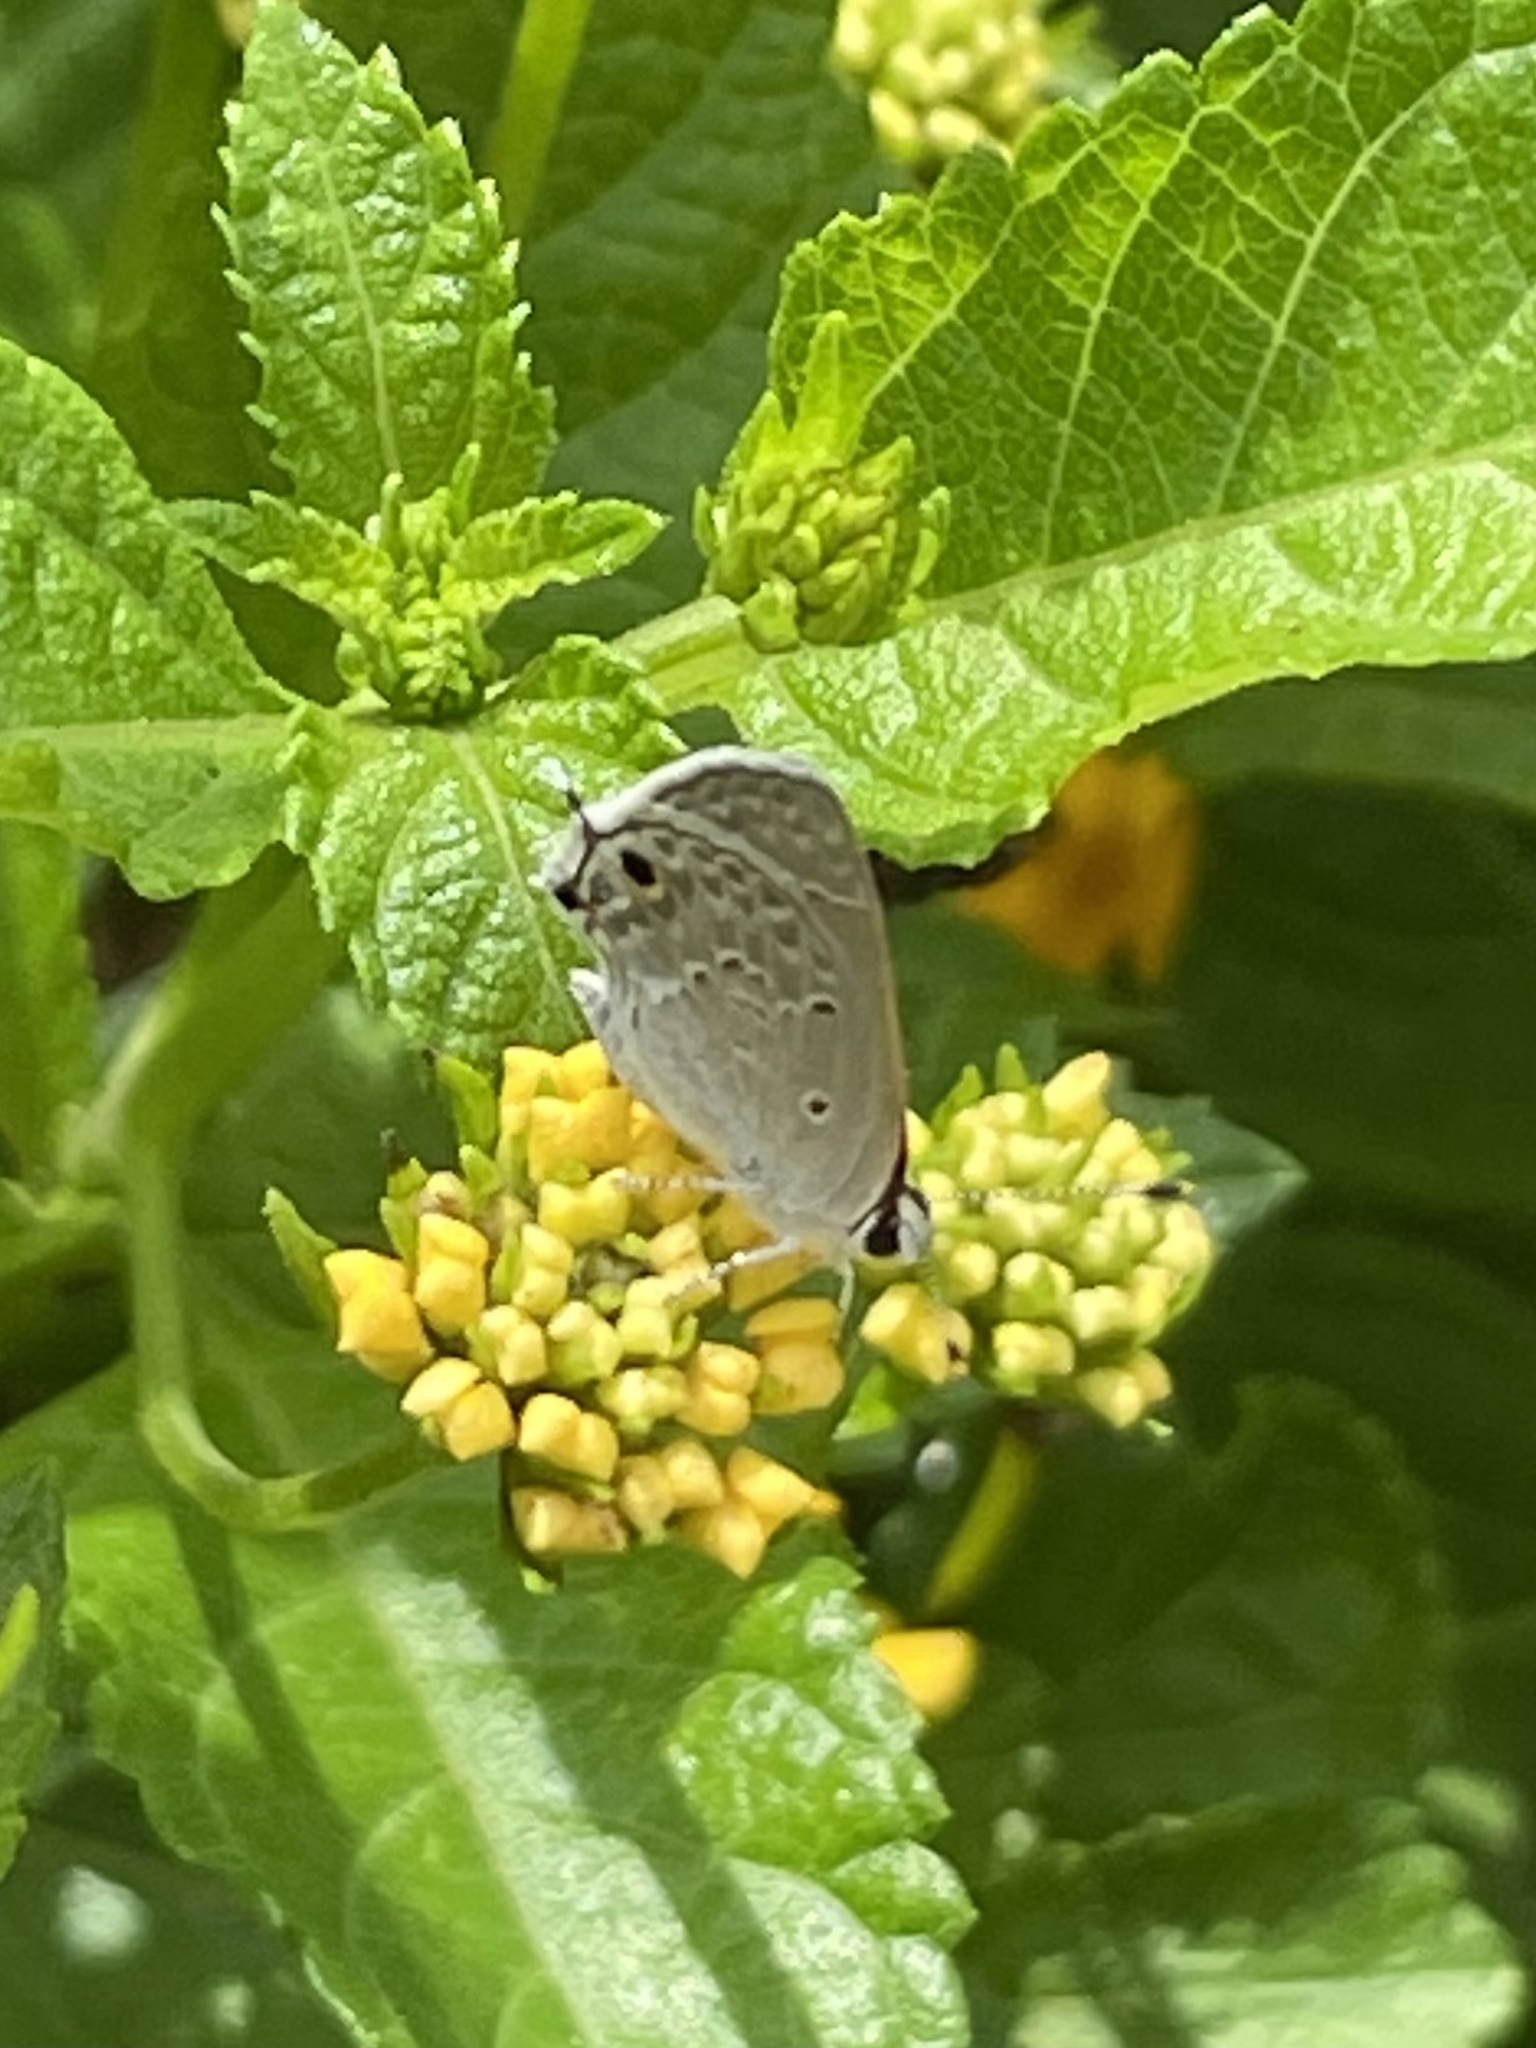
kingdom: Animalia
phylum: Arthropoda
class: Insecta
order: Lepidoptera
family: Lycaenidae
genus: Callicista
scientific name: Callicista columella
